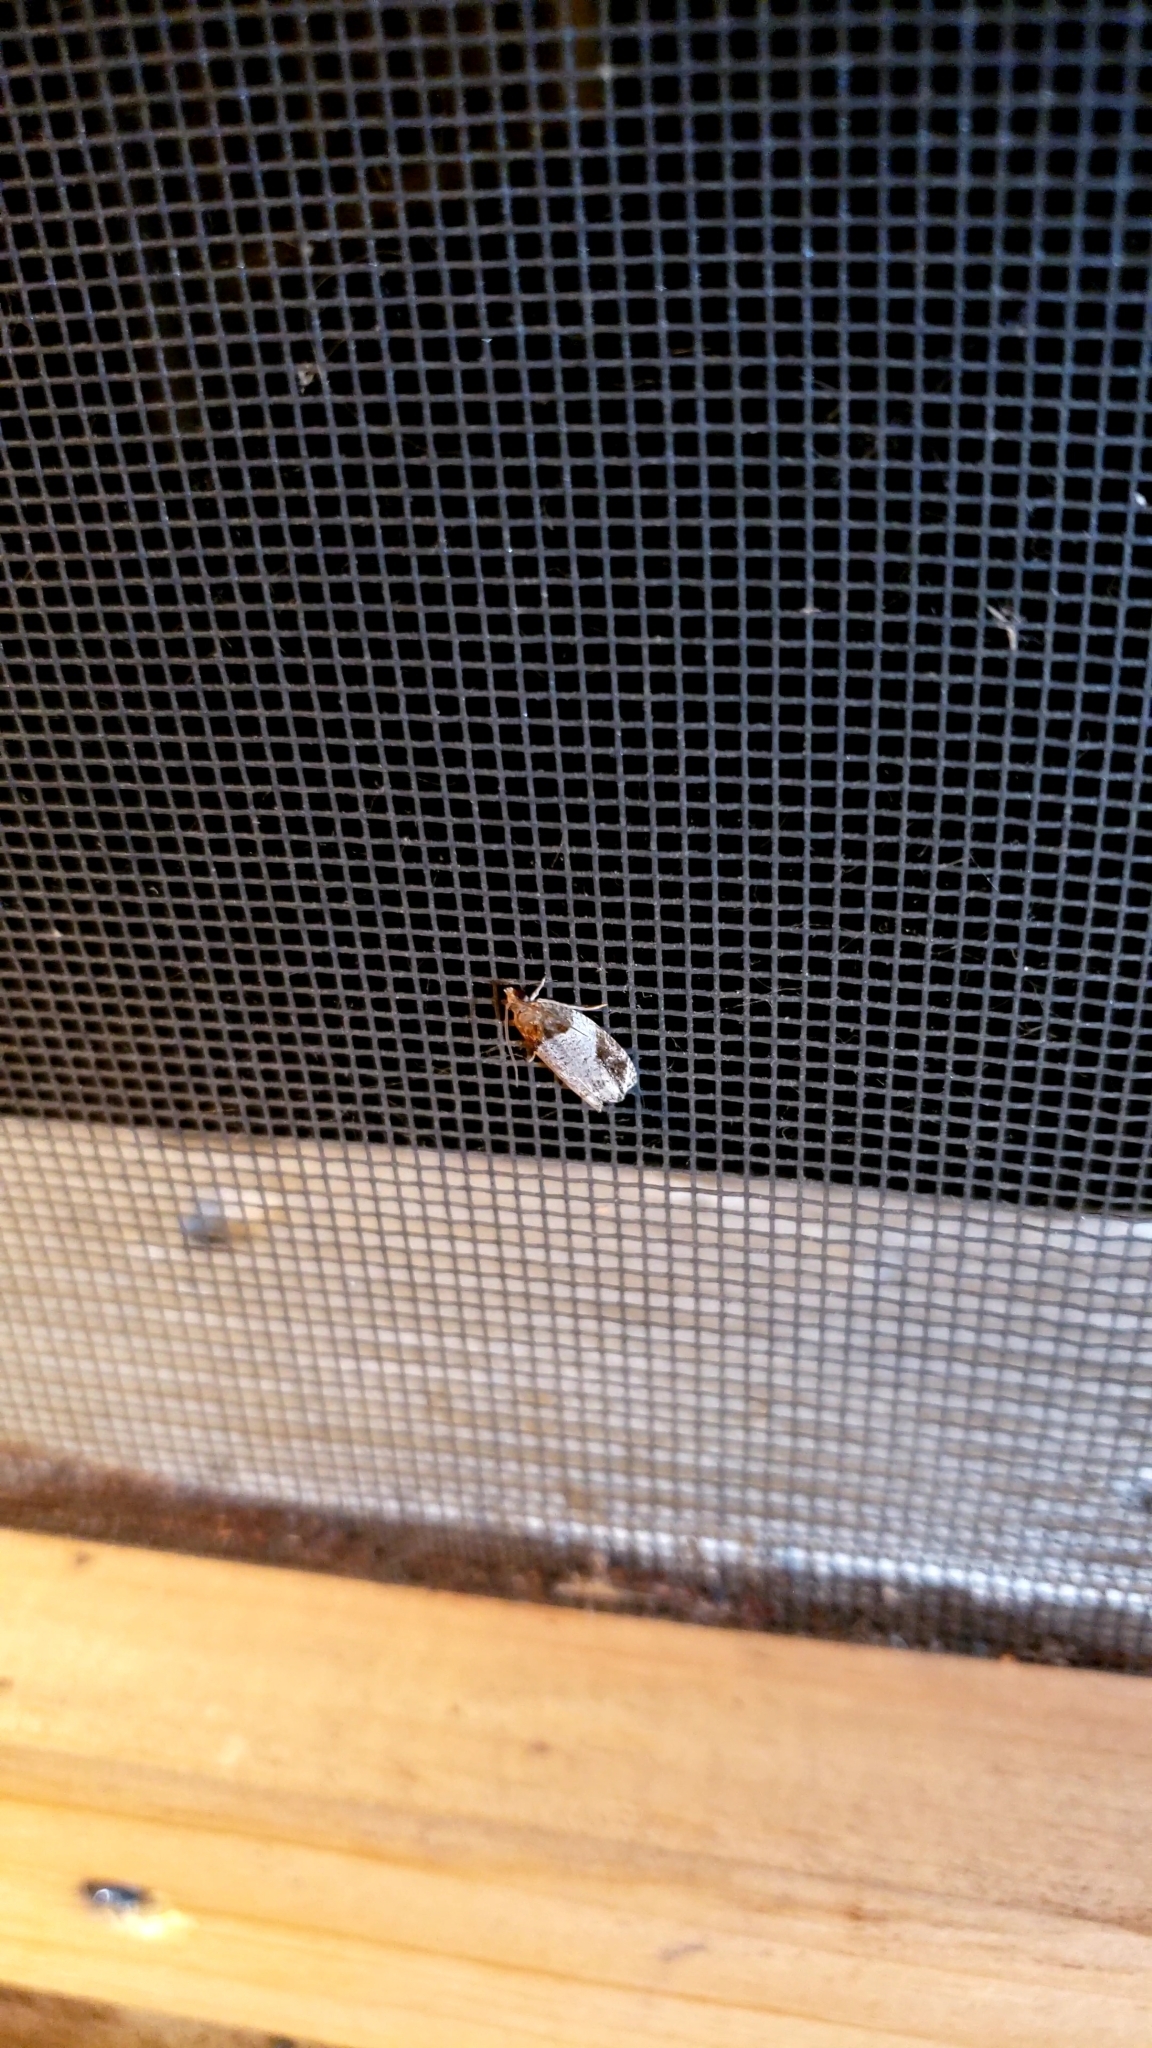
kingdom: Animalia
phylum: Arthropoda
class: Insecta
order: Lepidoptera
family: Tortricidae
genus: Olethreutes
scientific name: Olethreutes ferriferana
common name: Hydrangea leaftier moth
